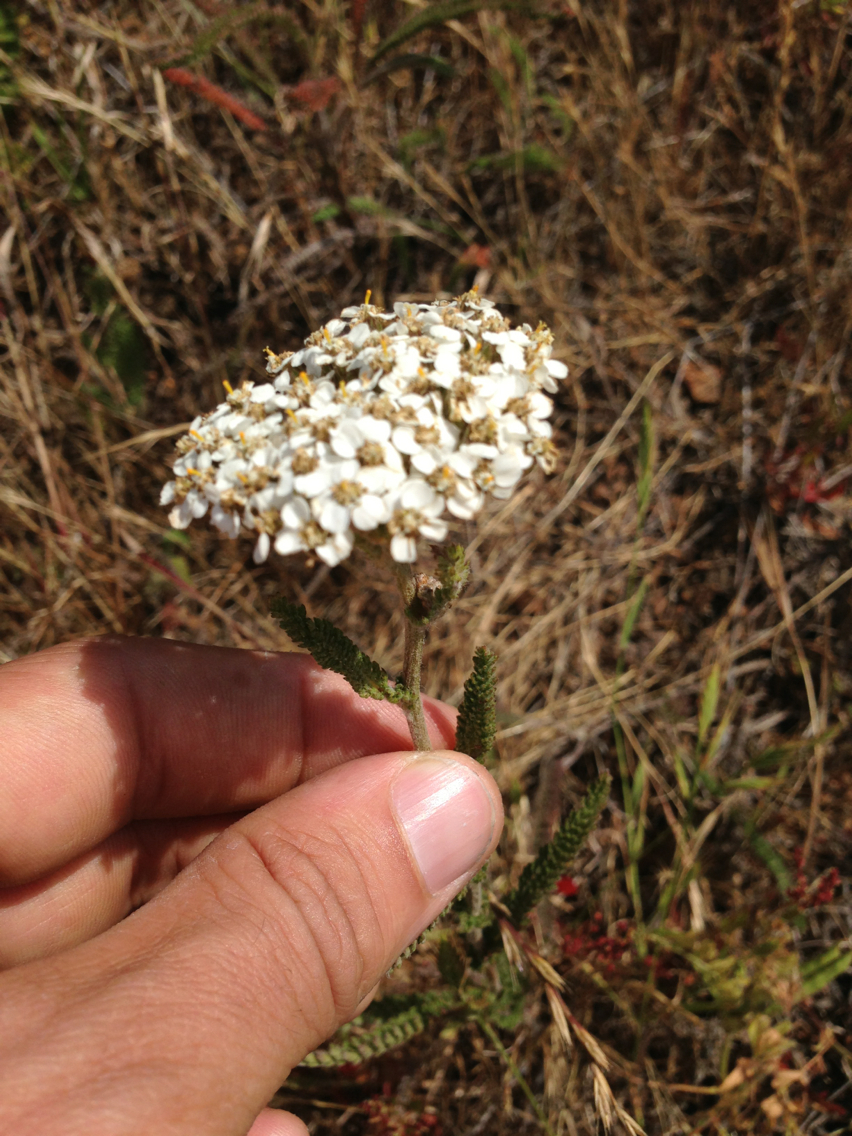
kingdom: Plantae
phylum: Tracheophyta
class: Magnoliopsida
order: Asterales
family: Asteraceae
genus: Achillea
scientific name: Achillea millefolium
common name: Yarrow
